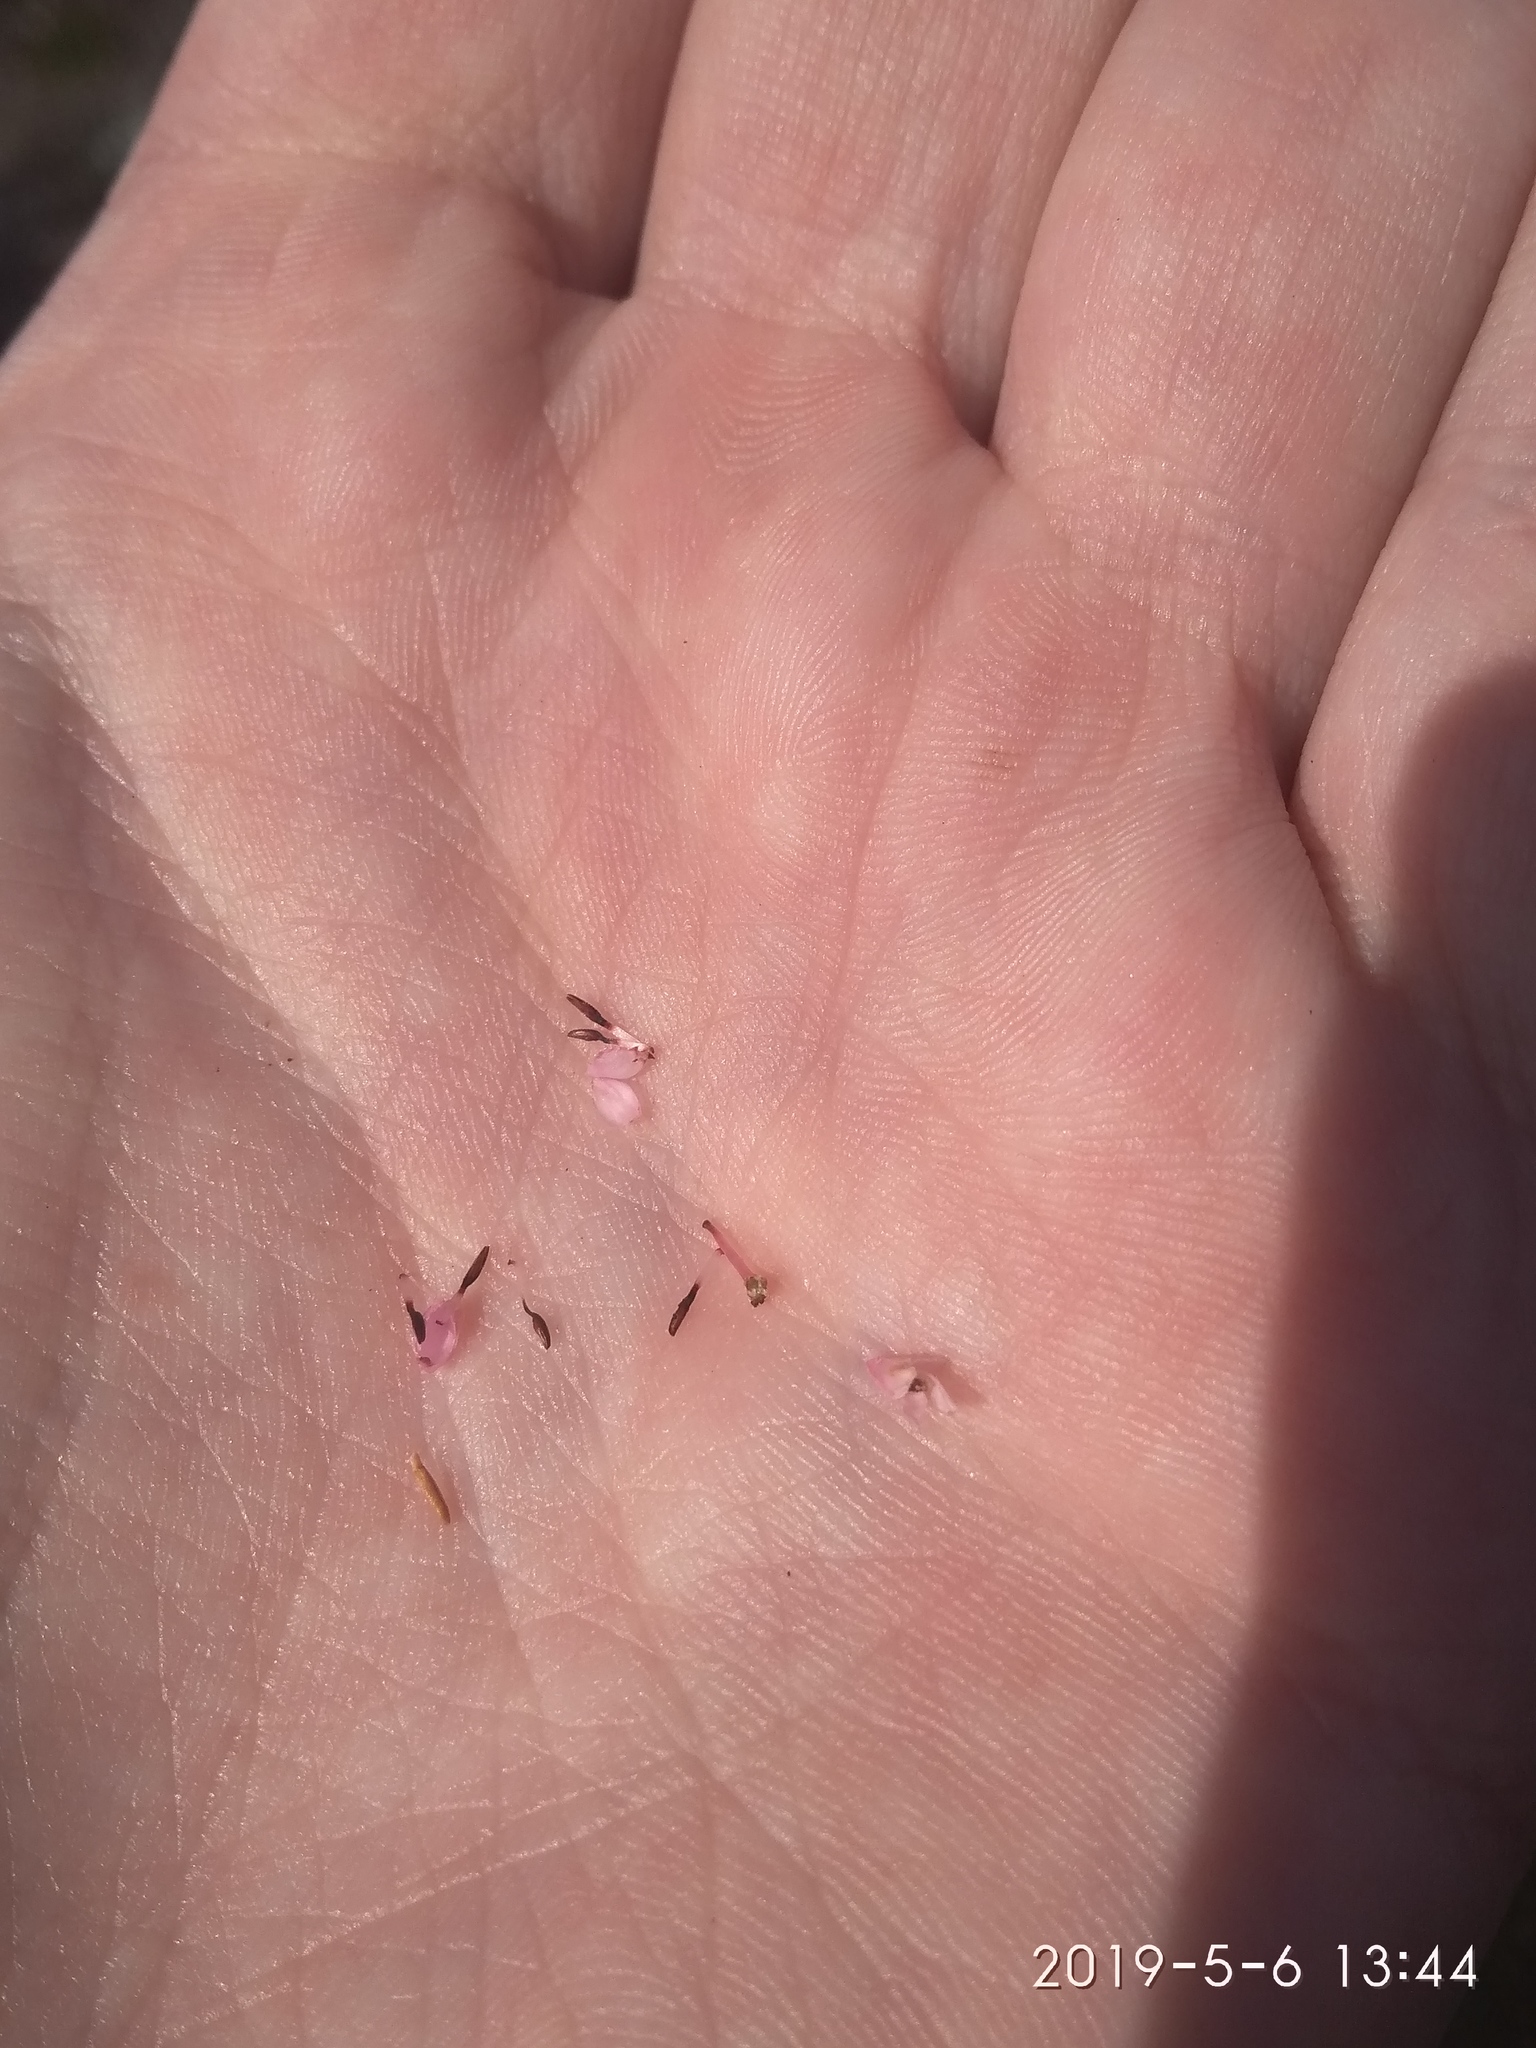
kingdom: Plantae
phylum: Tracheophyta
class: Magnoliopsida
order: Ericales
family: Ericaceae
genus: Erica
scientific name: Erica placentiflora
